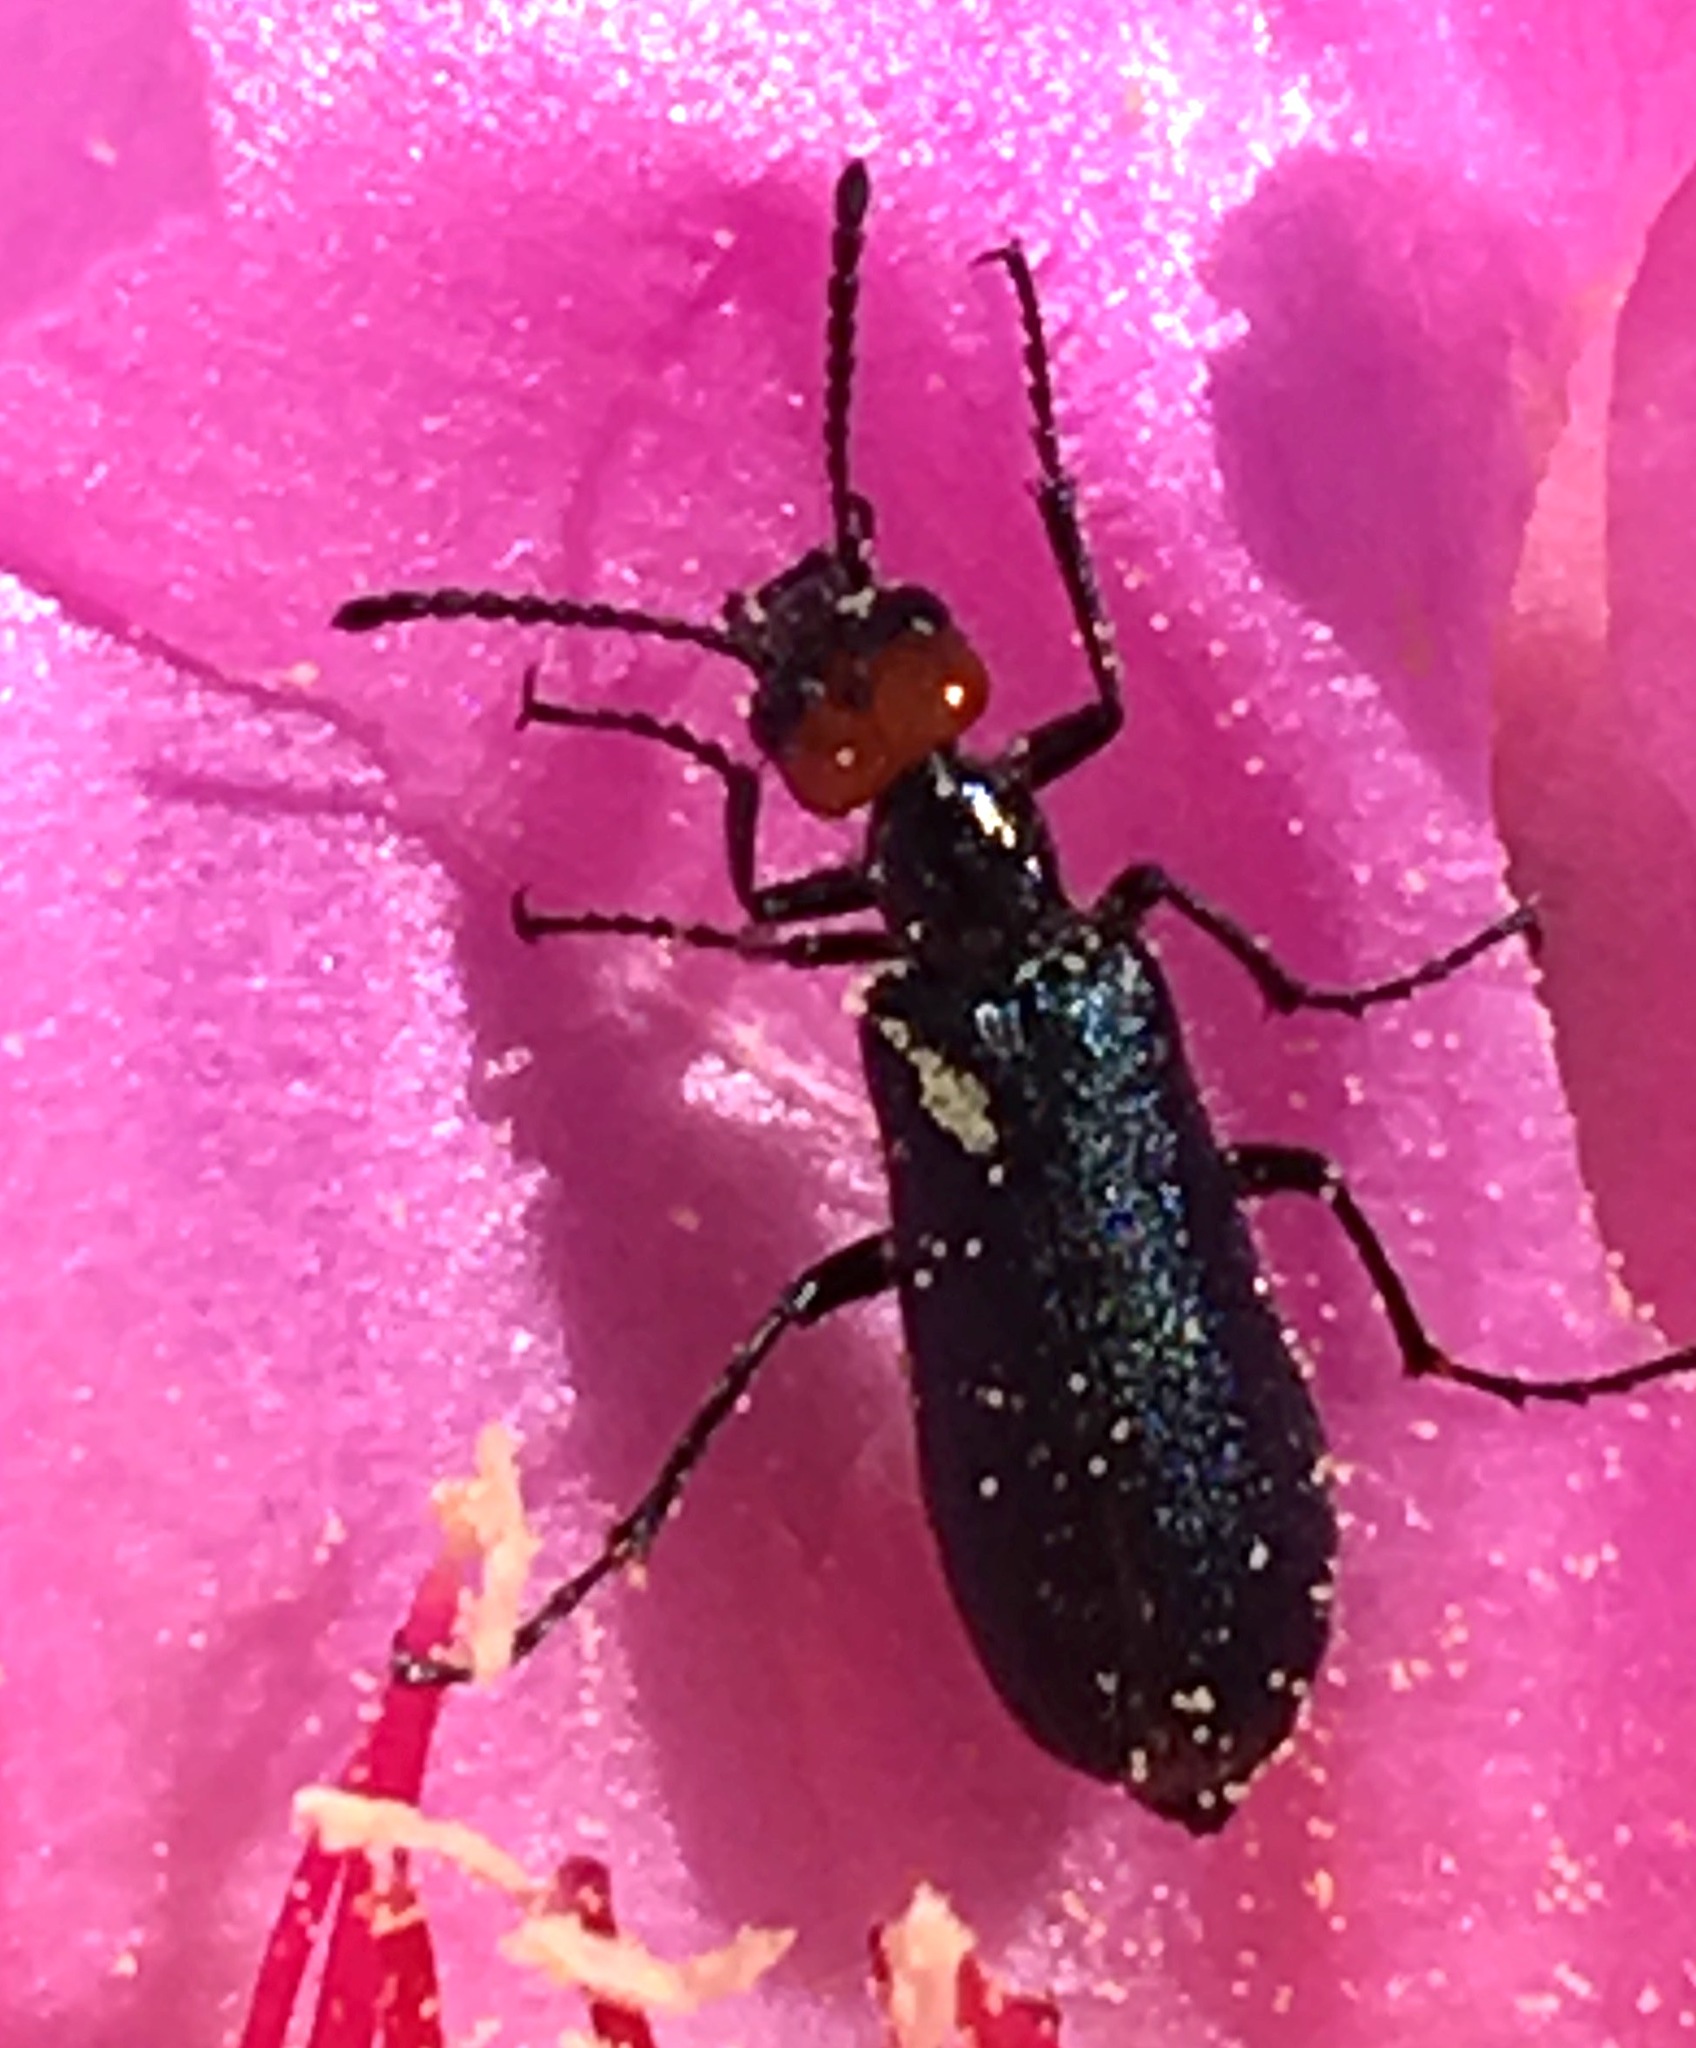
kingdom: Animalia
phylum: Arthropoda
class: Insecta
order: Coleoptera
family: Meloidae
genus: Lytta
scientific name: Lytta auriculata
